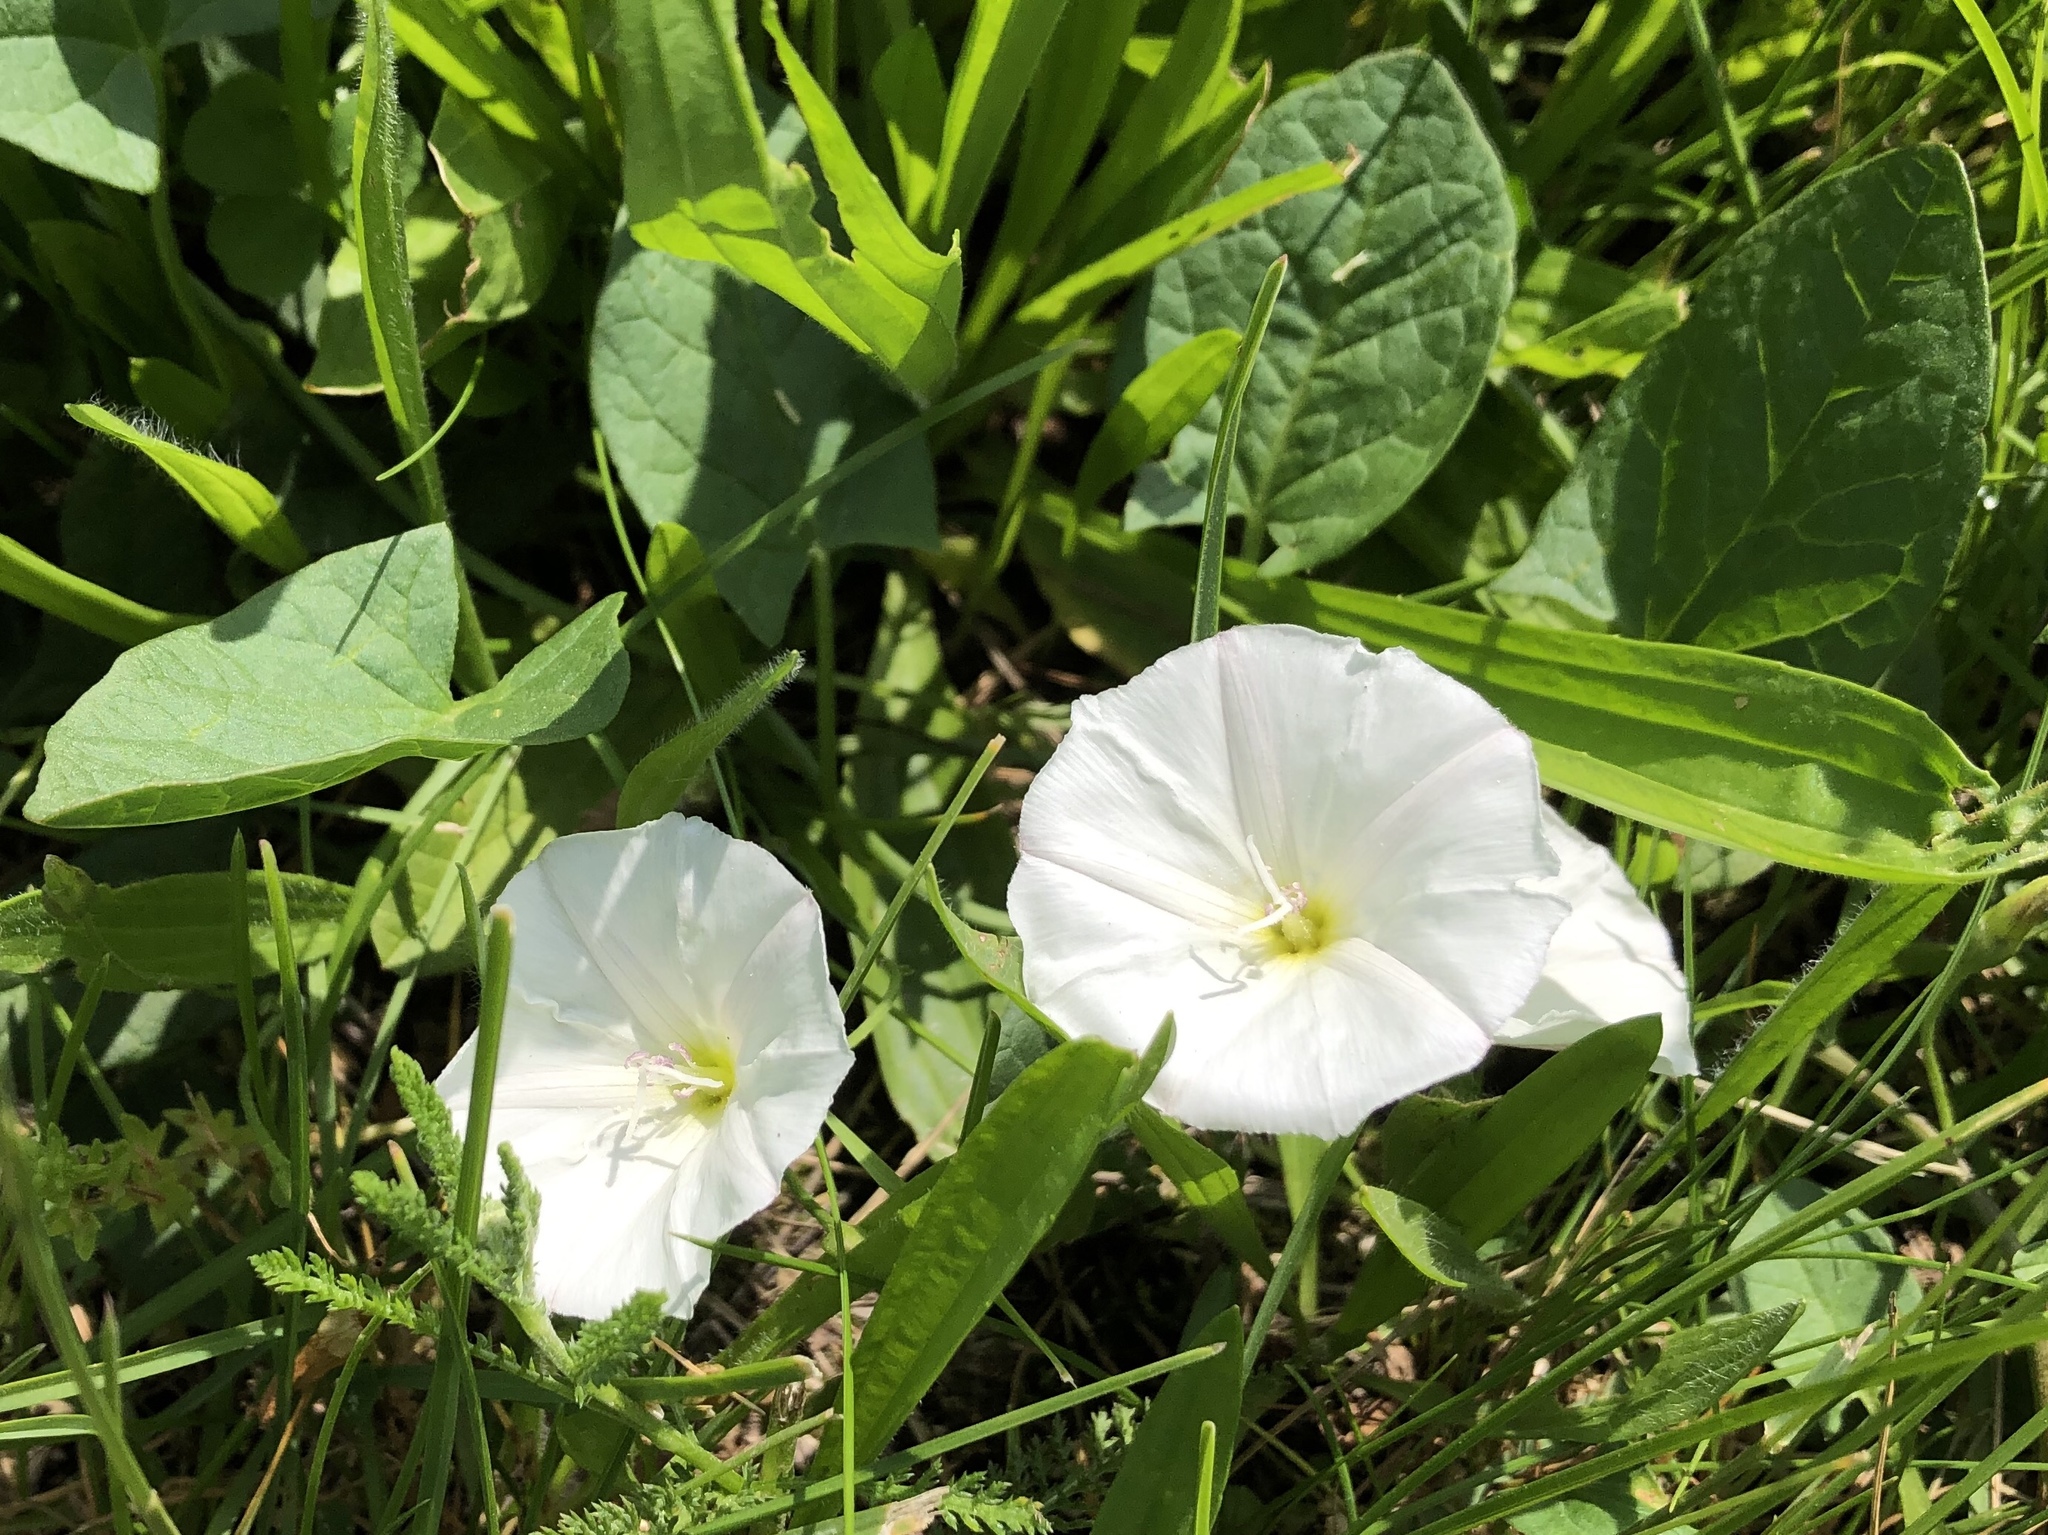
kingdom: Plantae
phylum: Tracheophyta
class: Magnoliopsida
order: Solanales
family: Convolvulaceae
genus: Convolvulus
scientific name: Convolvulus arvensis
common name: Field bindweed
